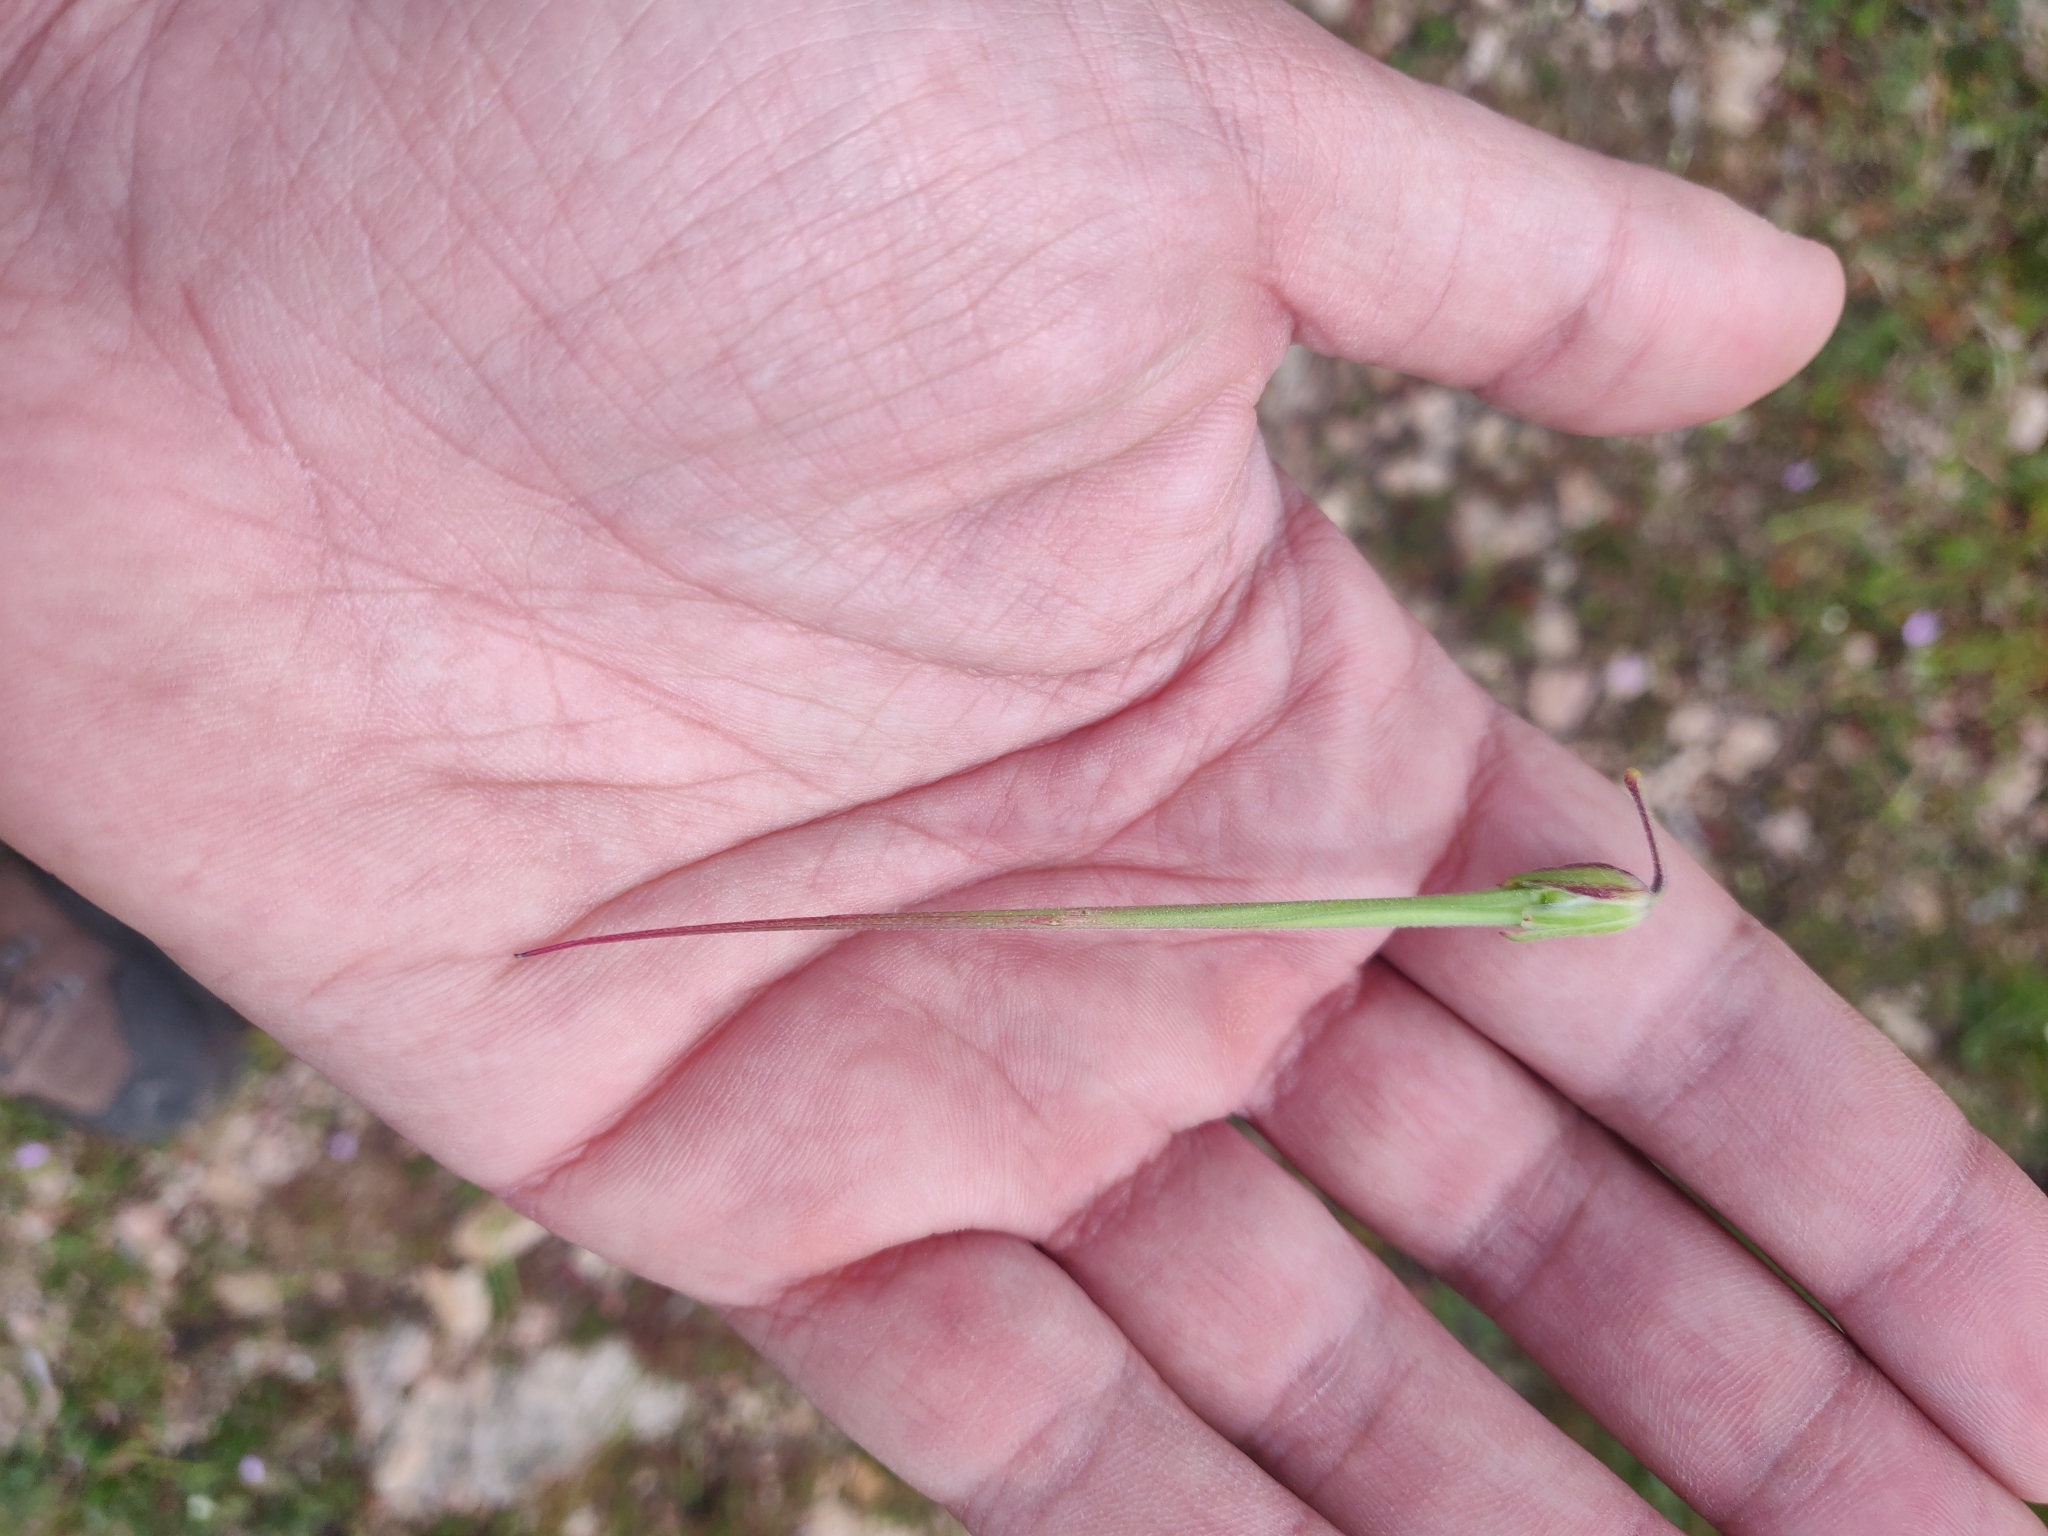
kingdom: Plantae
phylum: Tracheophyta
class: Magnoliopsida
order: Geraniales
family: Geraniaceae
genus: Erodium
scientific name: Erodium botrys
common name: Mediterranean stork's-bill
